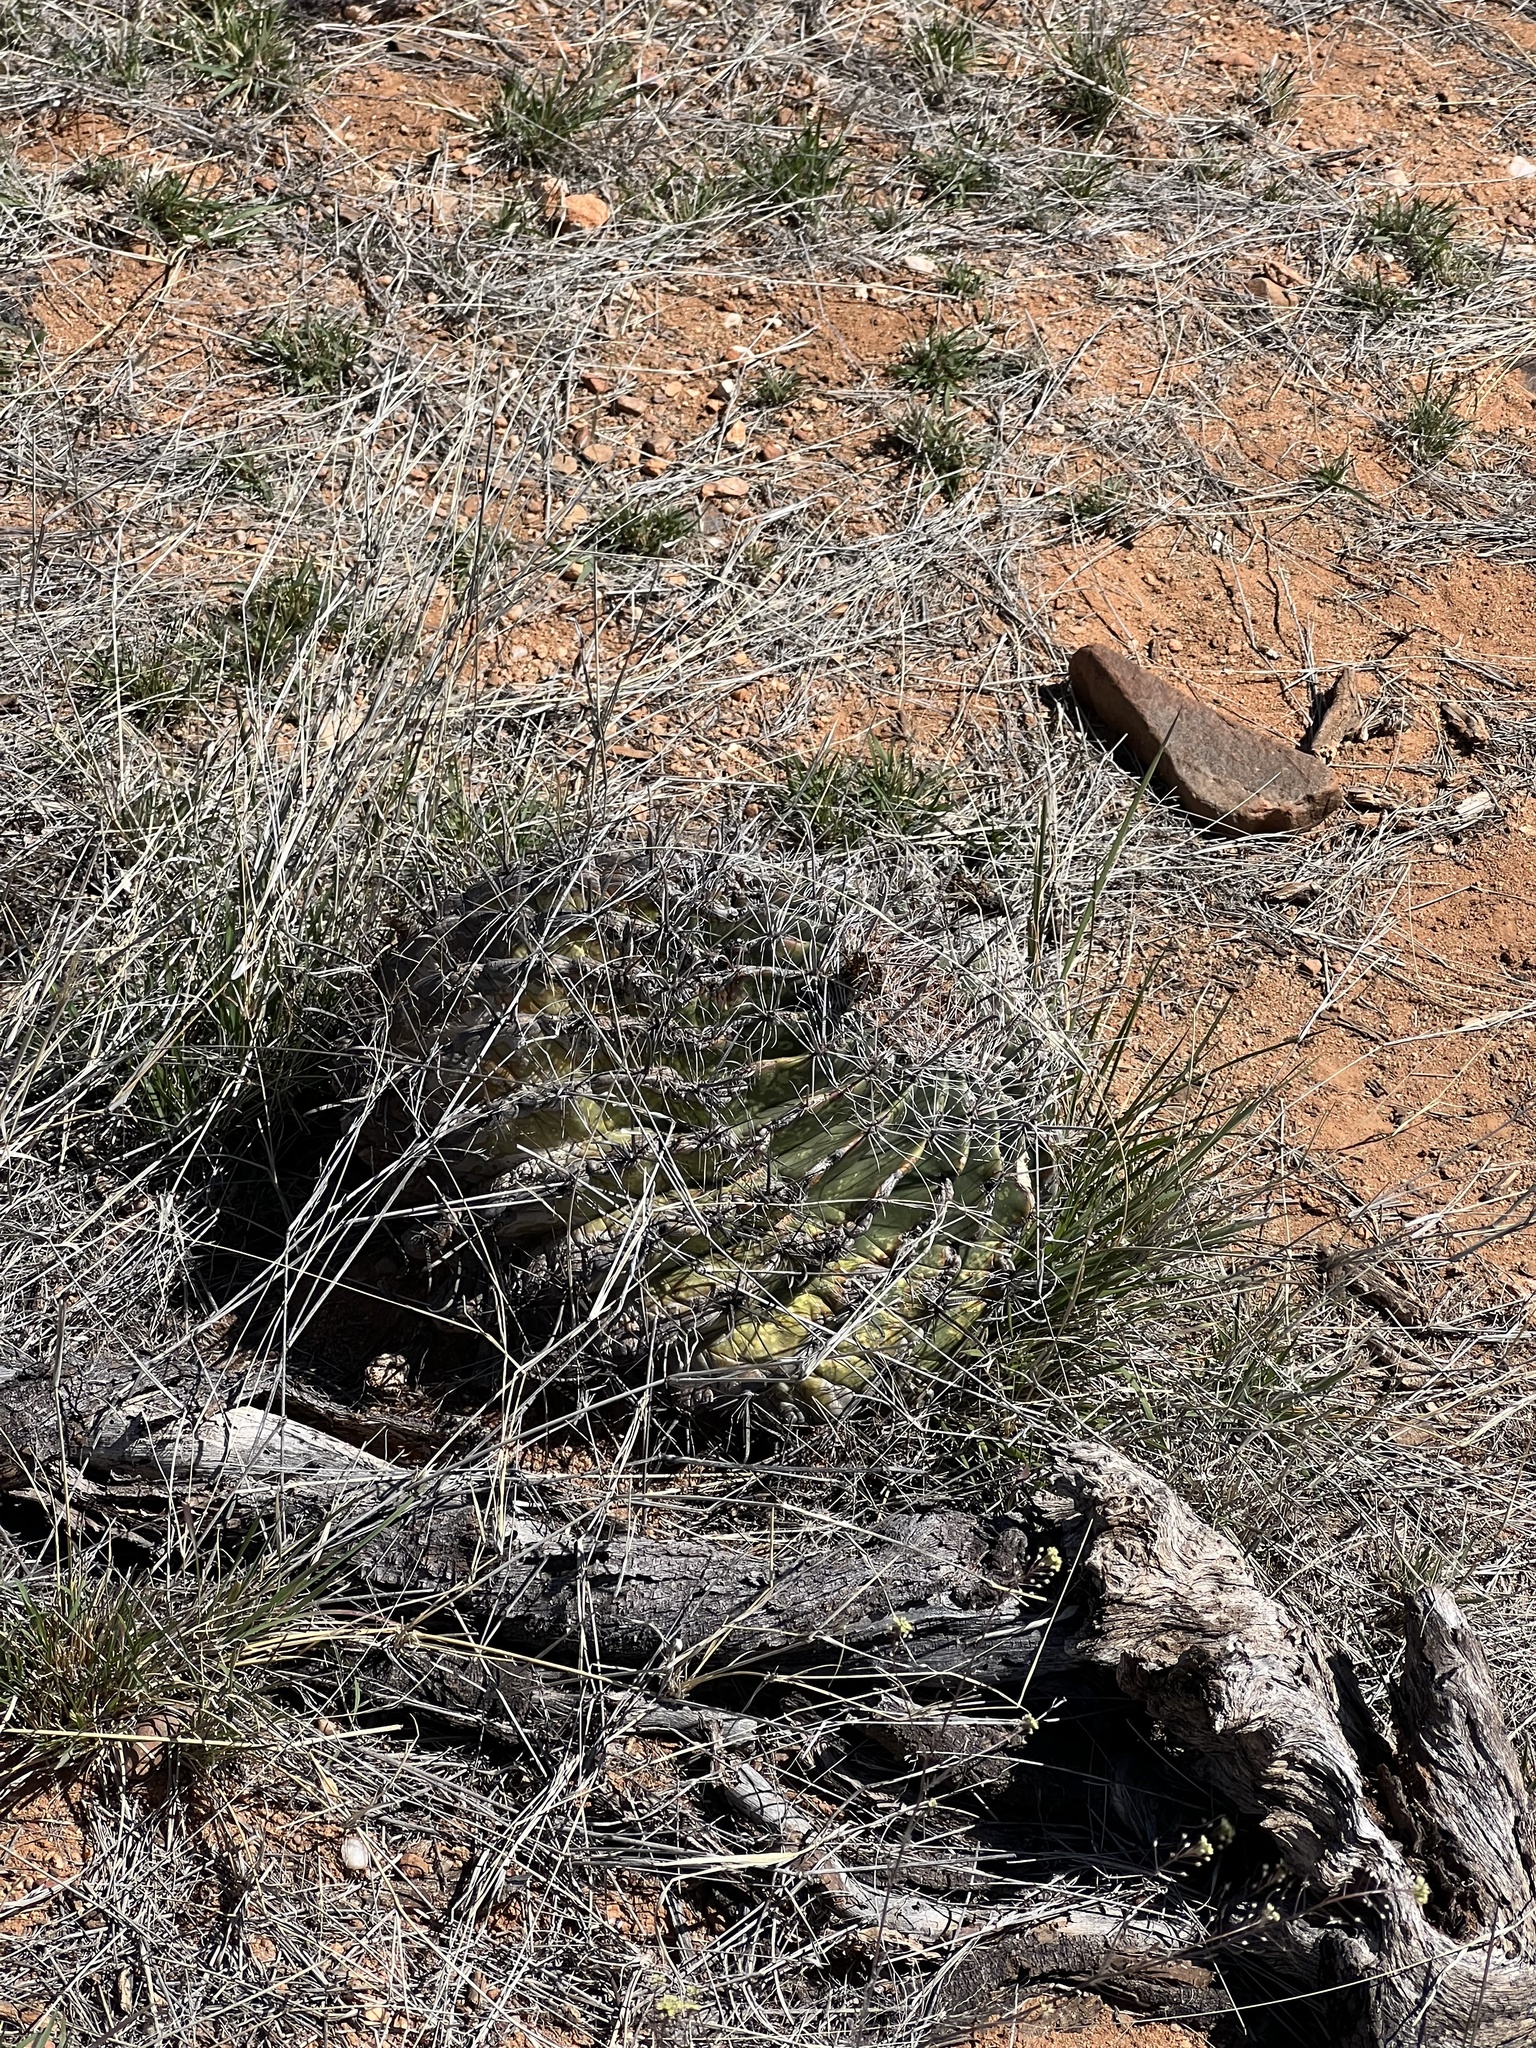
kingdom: Plantae
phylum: Tracheophyta
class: Magnoliopsida
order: Caryophyllales
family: Cactaceae
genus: Ferocactus
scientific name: Ferocactus wislizeni
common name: Candy barrel cactus
